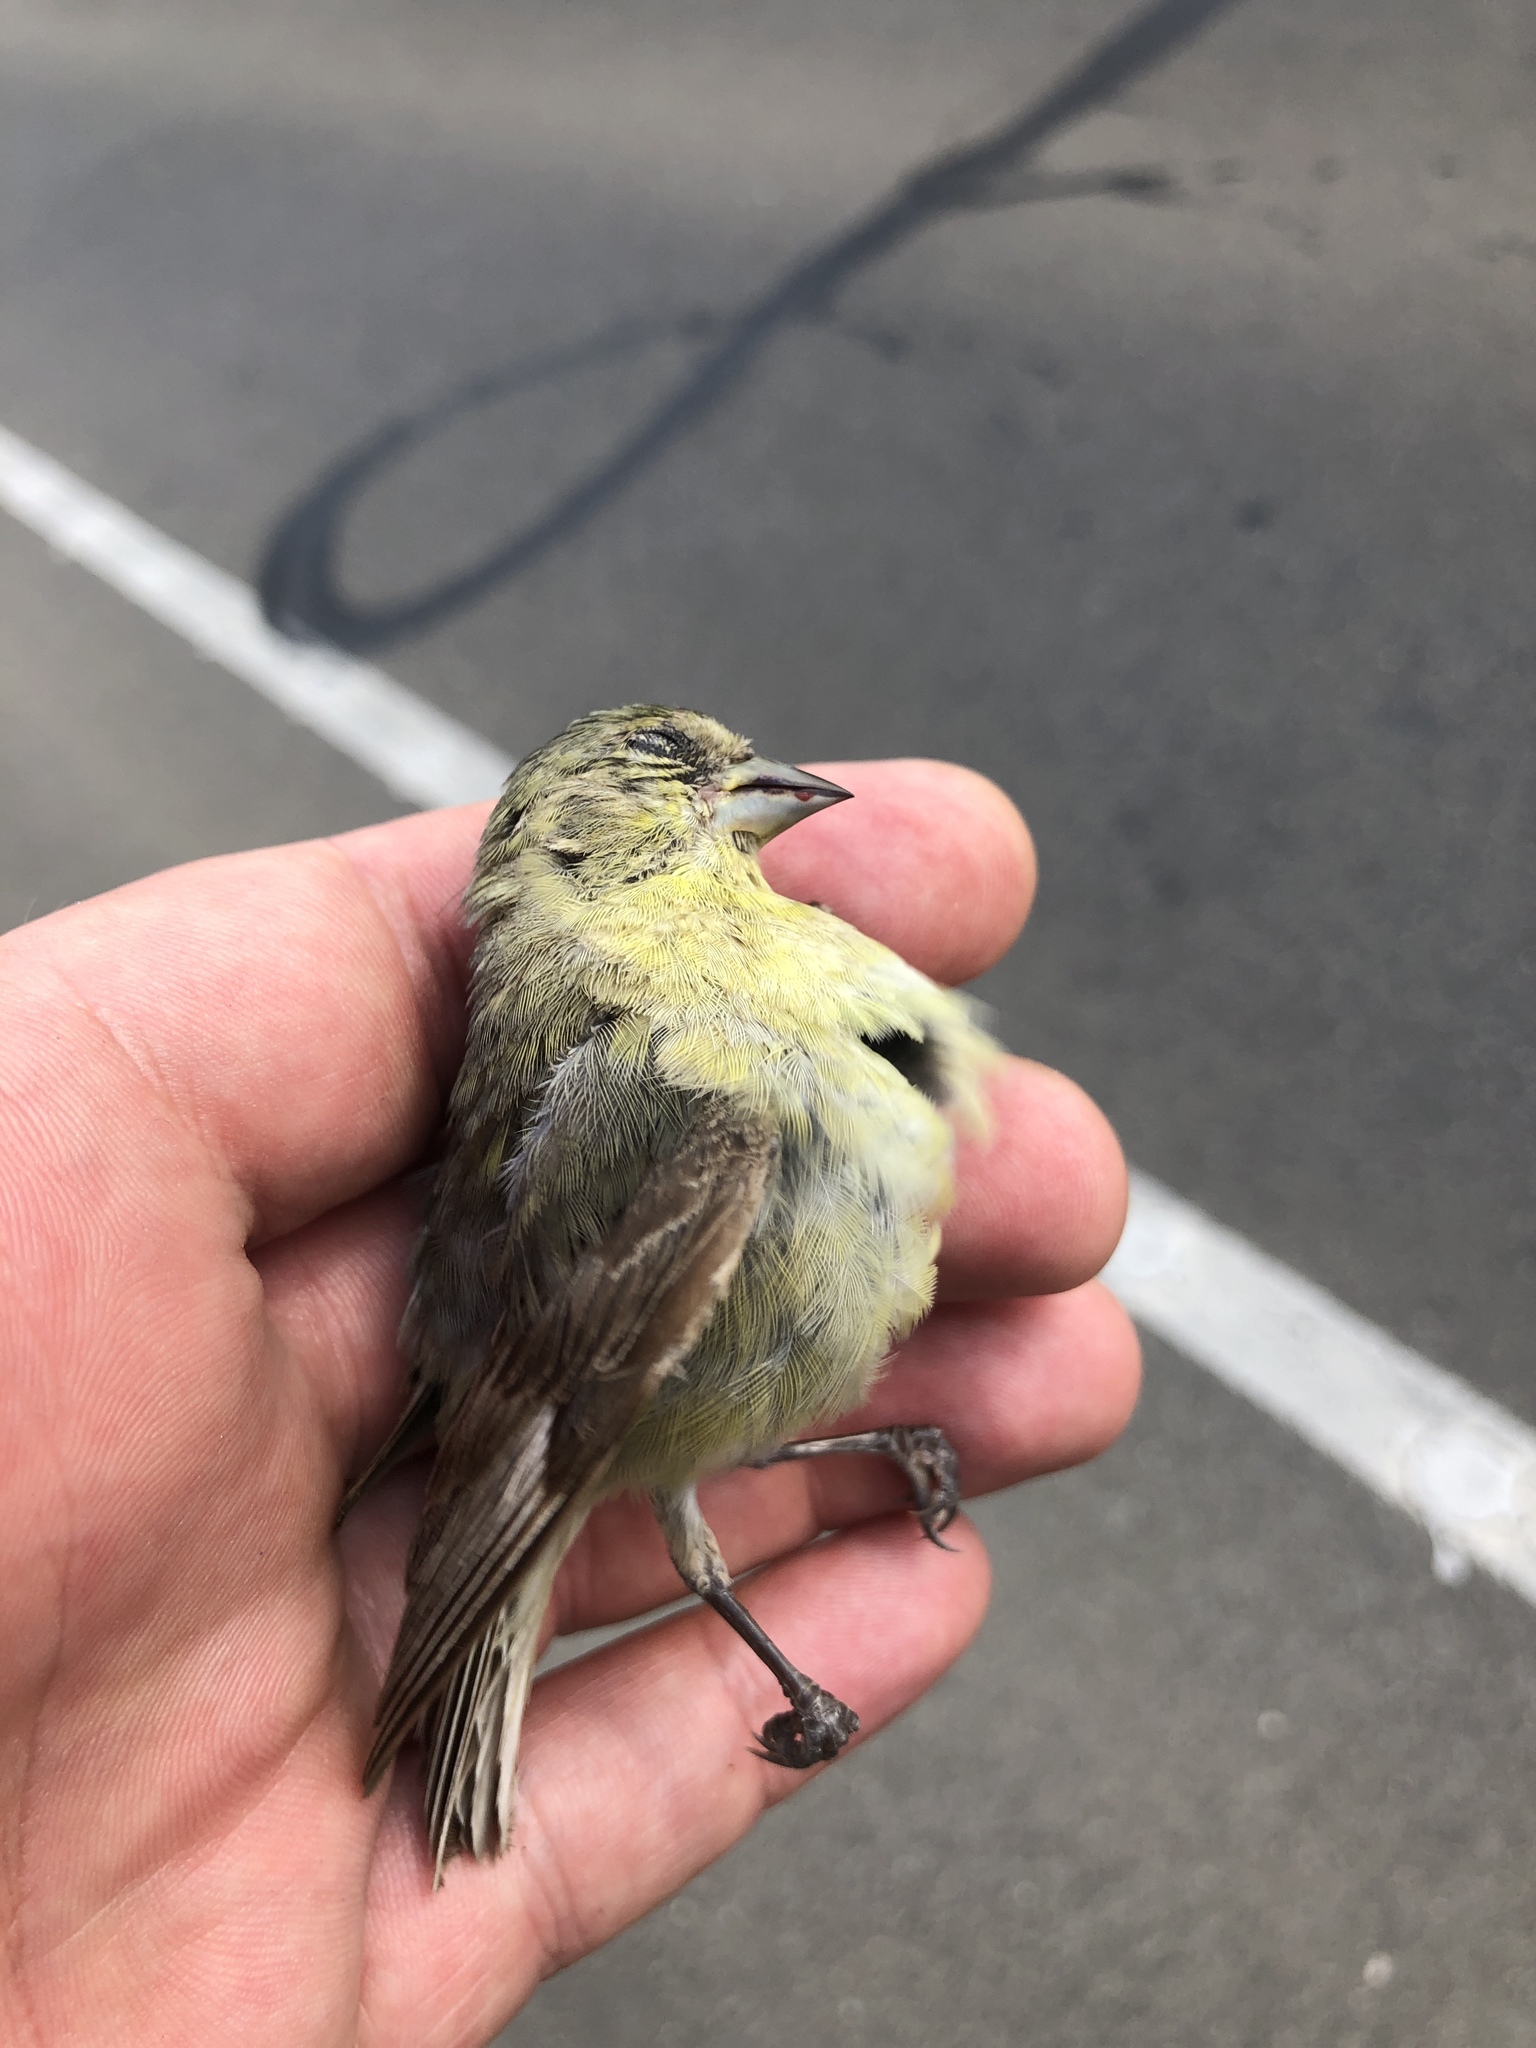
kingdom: Animalia
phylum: Chordata
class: Aves
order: Passeriformes
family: Fringillidae
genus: Spinus
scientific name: Spinus psaltria
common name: Lesser goldfinch
